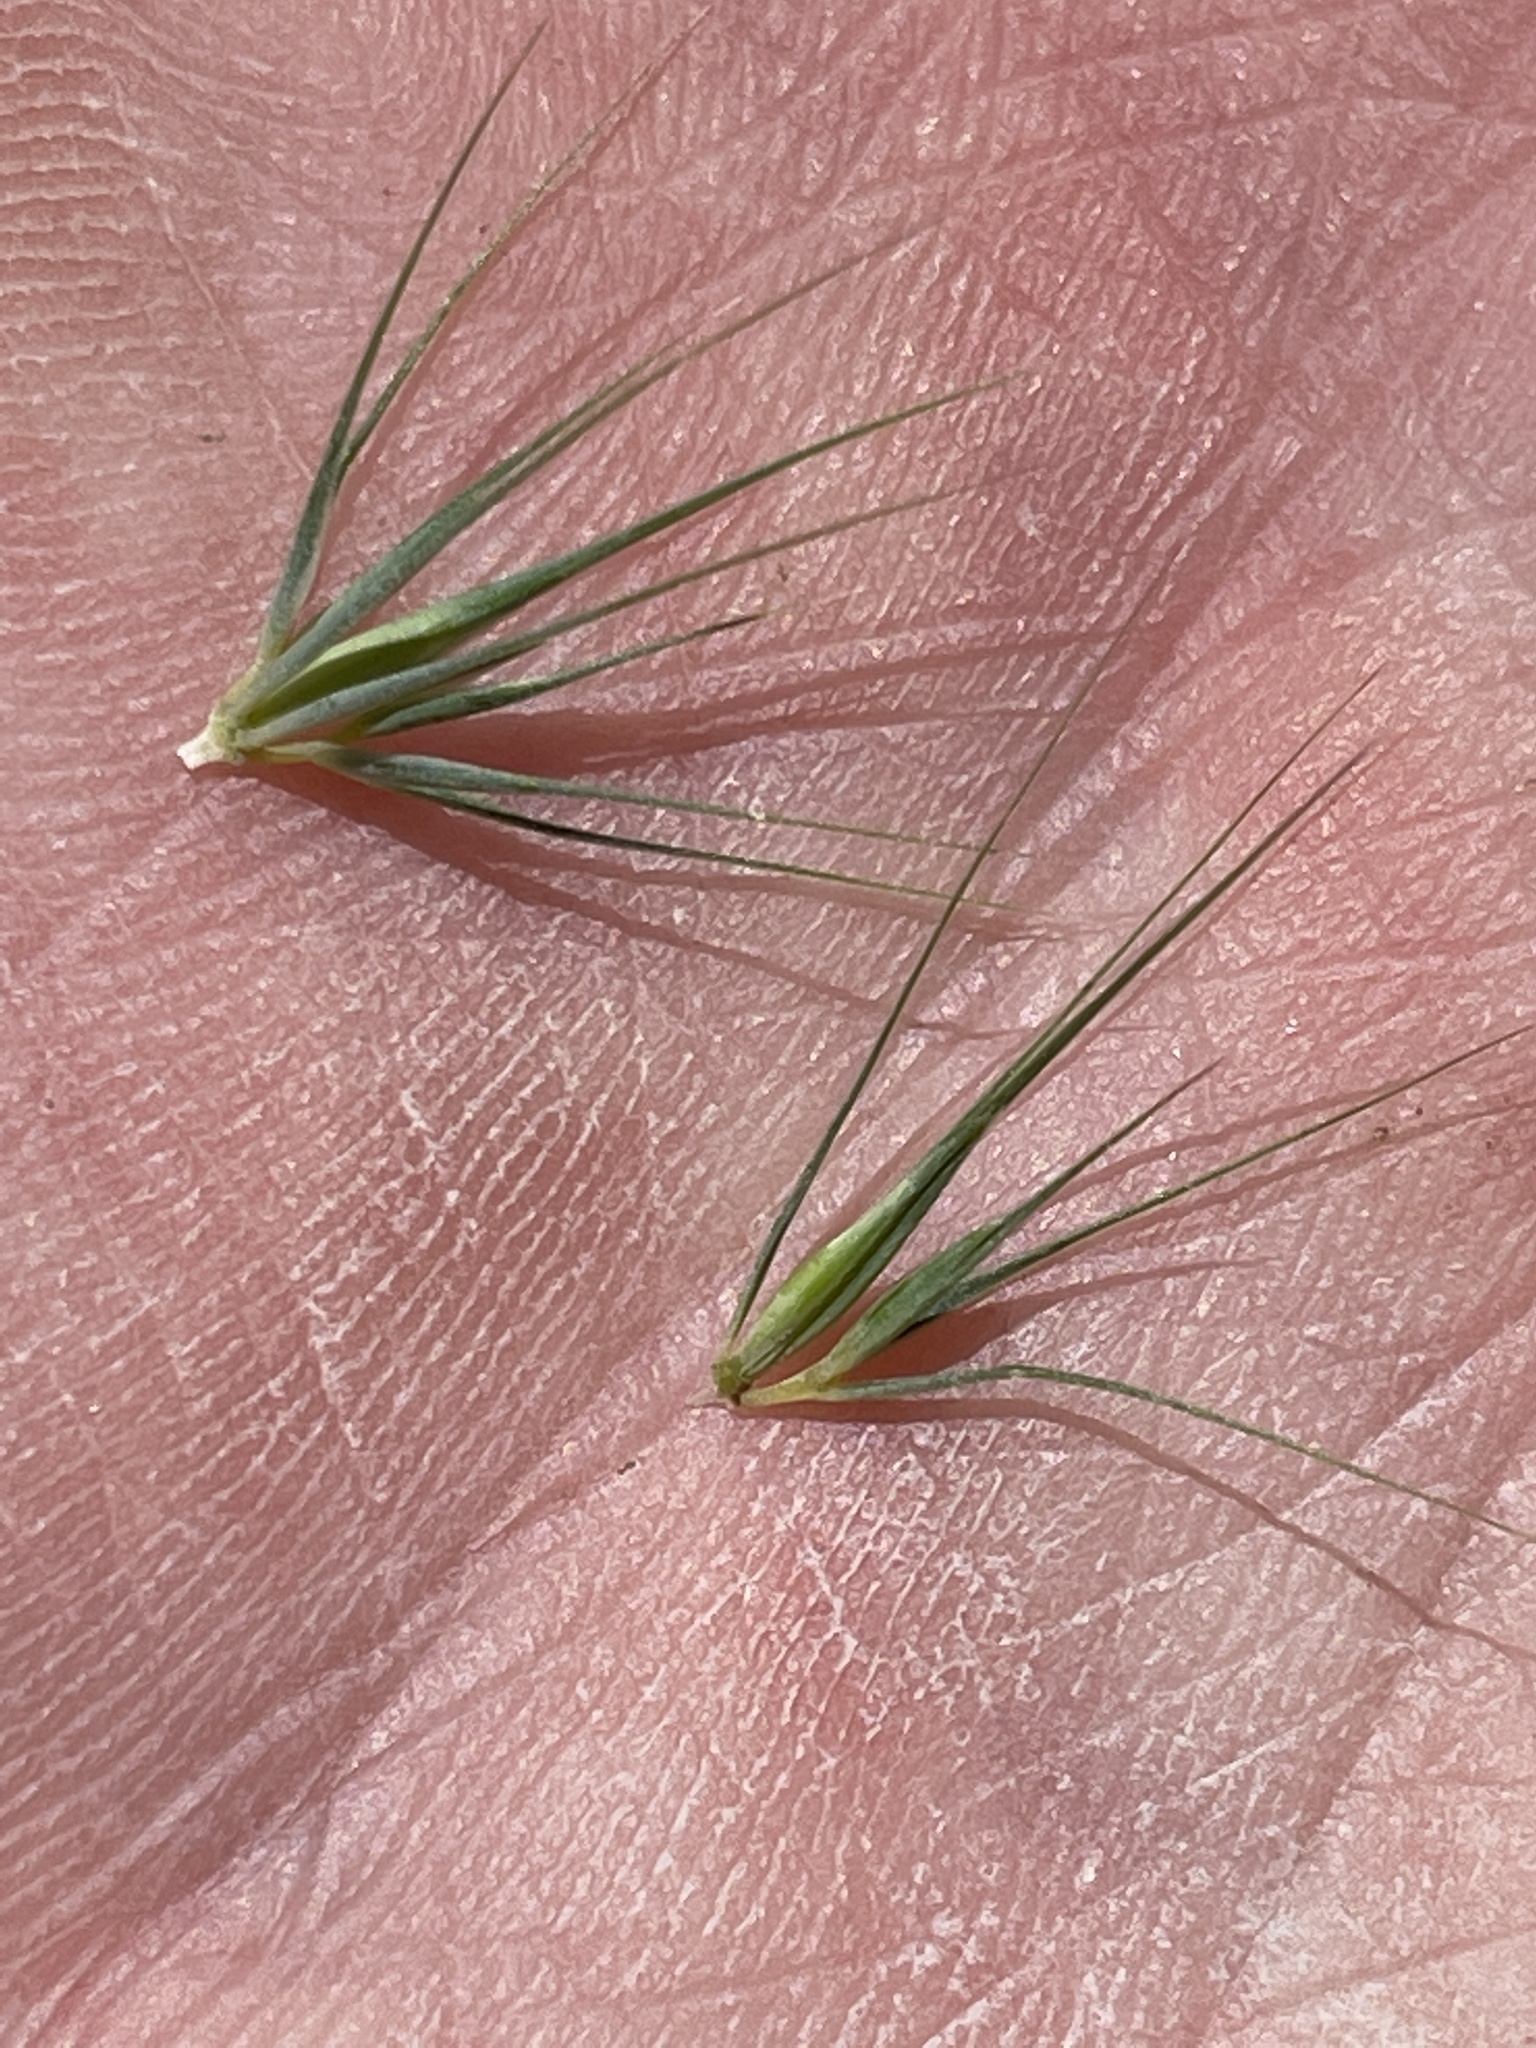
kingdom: Plantae
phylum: Tracheophyta
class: Liliopsida
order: Poales
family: Poaceae
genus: Hordeum
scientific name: Hordeum marinum
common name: Sea barley
